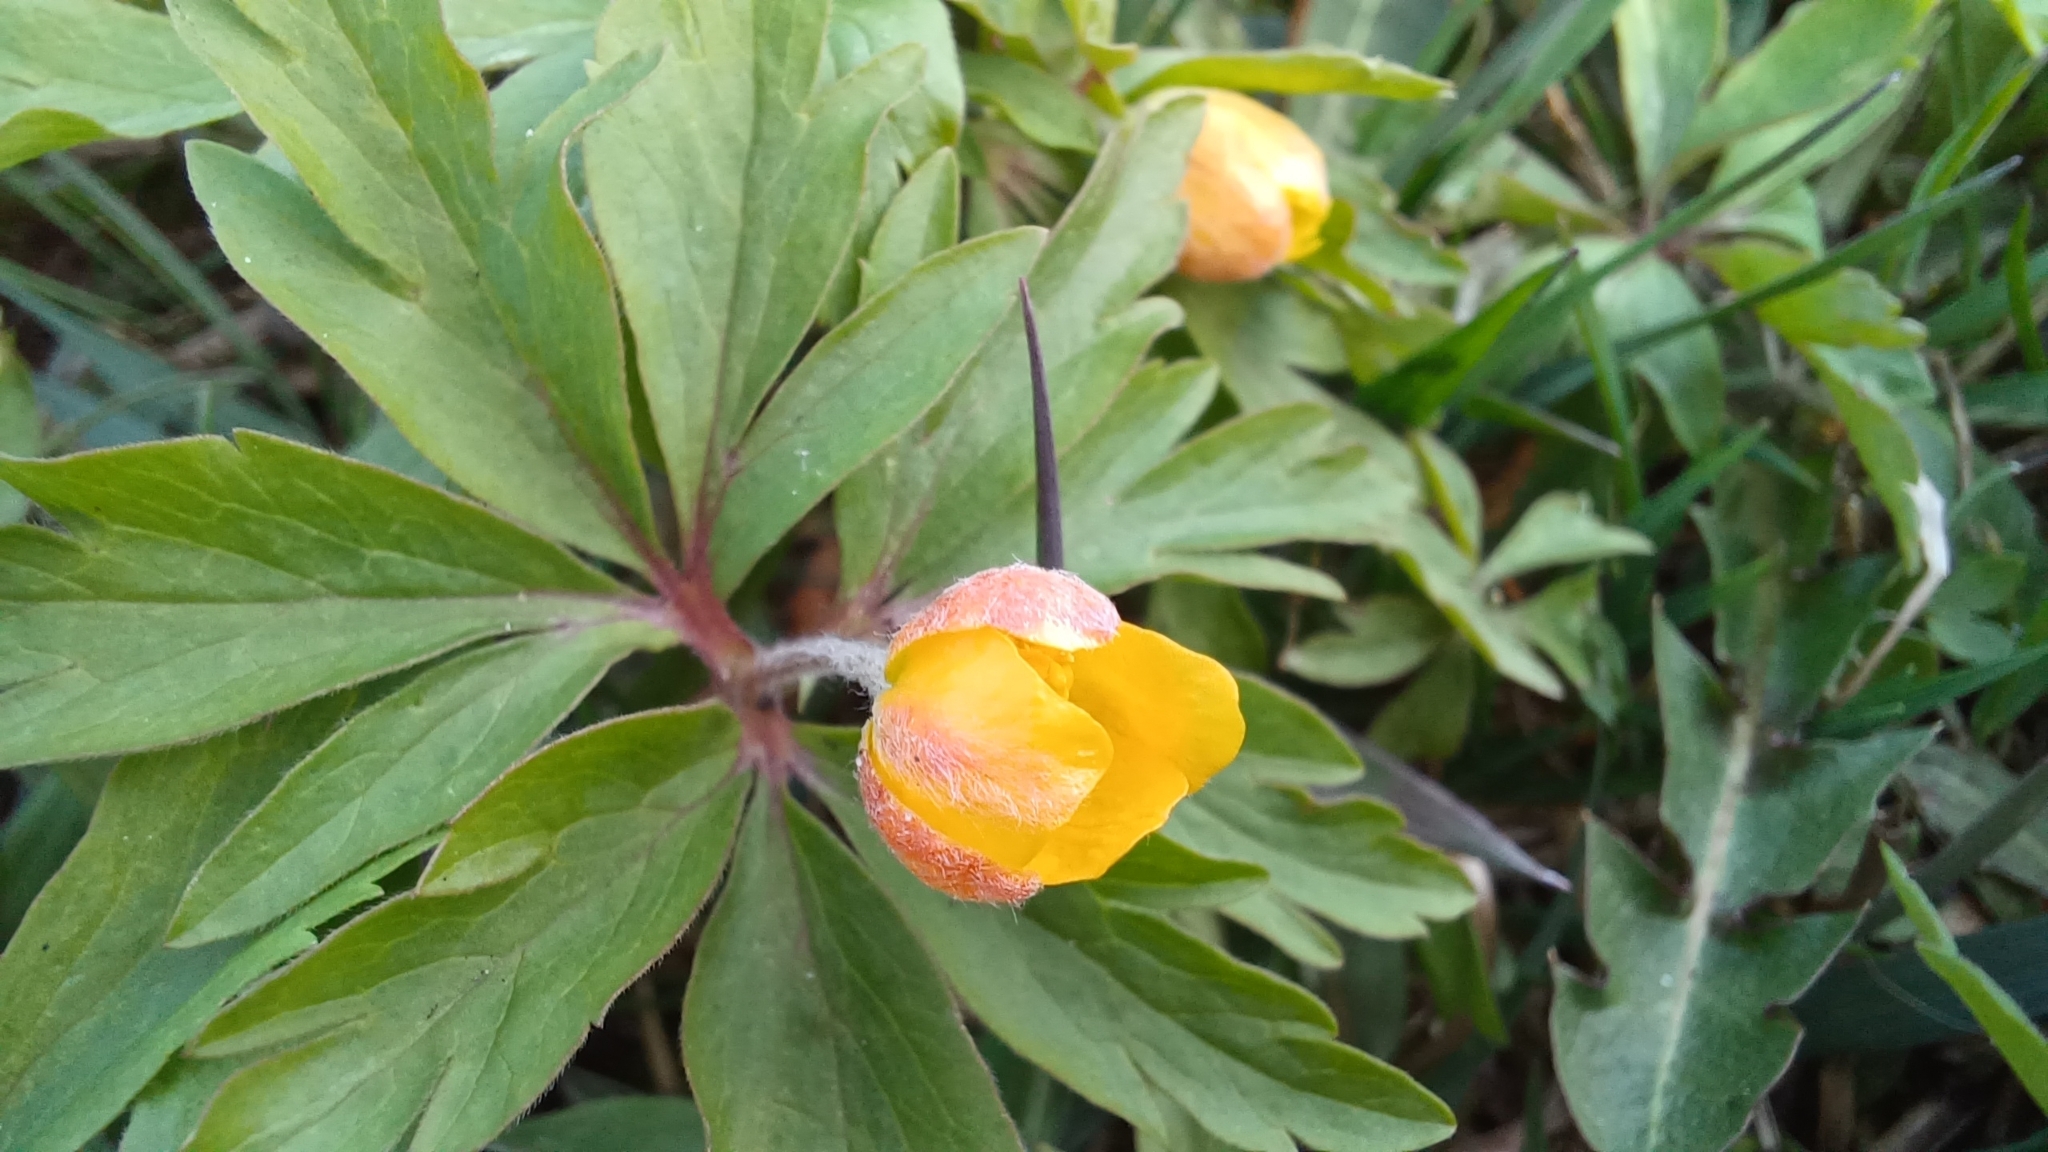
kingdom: Plantae
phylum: Tracheophyta
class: Magnoliopsida
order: Ranunculales
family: Ranunculaceae
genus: Anemone
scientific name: Anemone ranunculoides
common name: Yellow anemone
